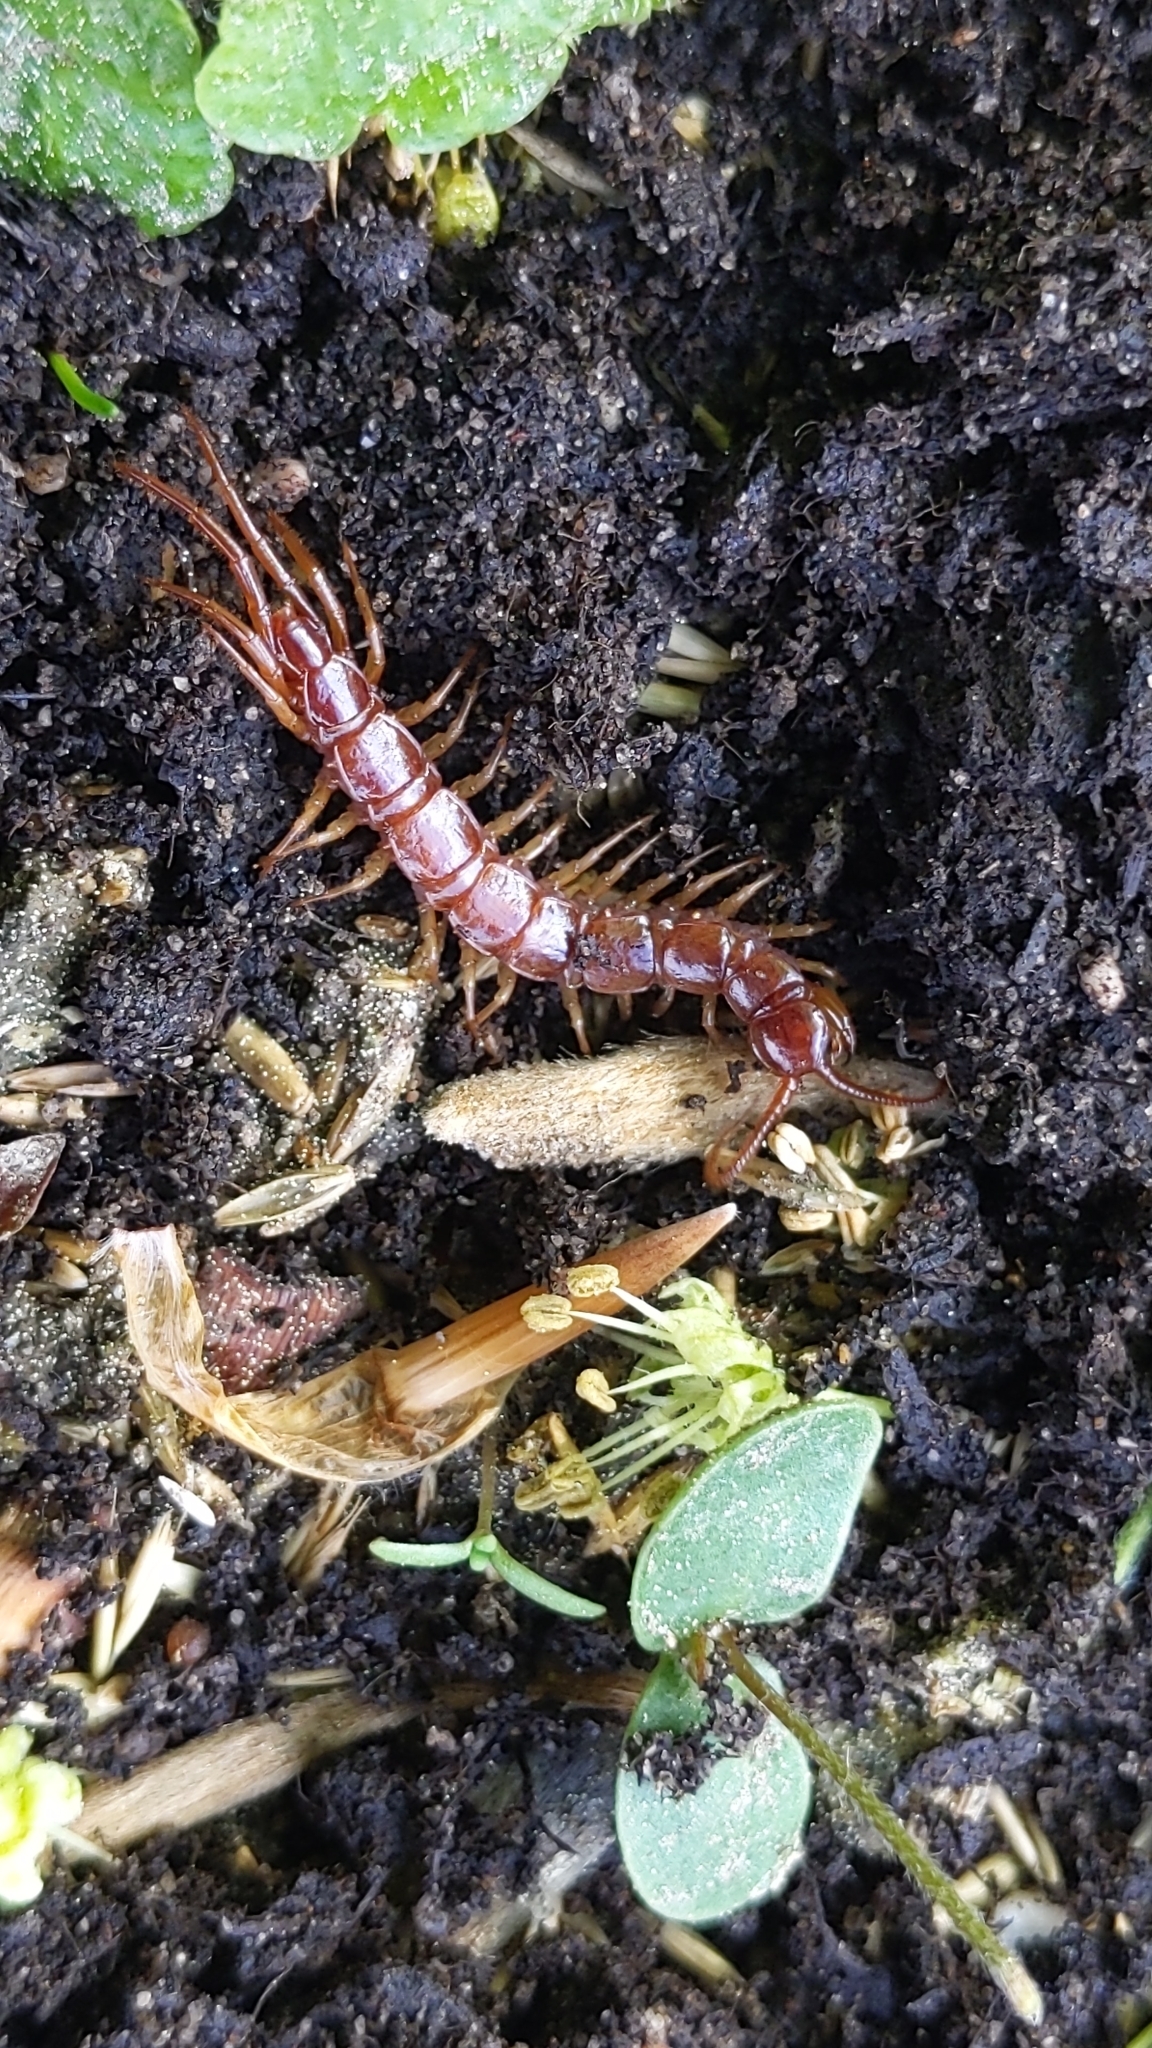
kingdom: Animalia
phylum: Arthropoda
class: Chilopoda
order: Lithobiomorpha
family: Lithobiidae
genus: Lithobius
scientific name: Lithobius forficatus
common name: Centipede
